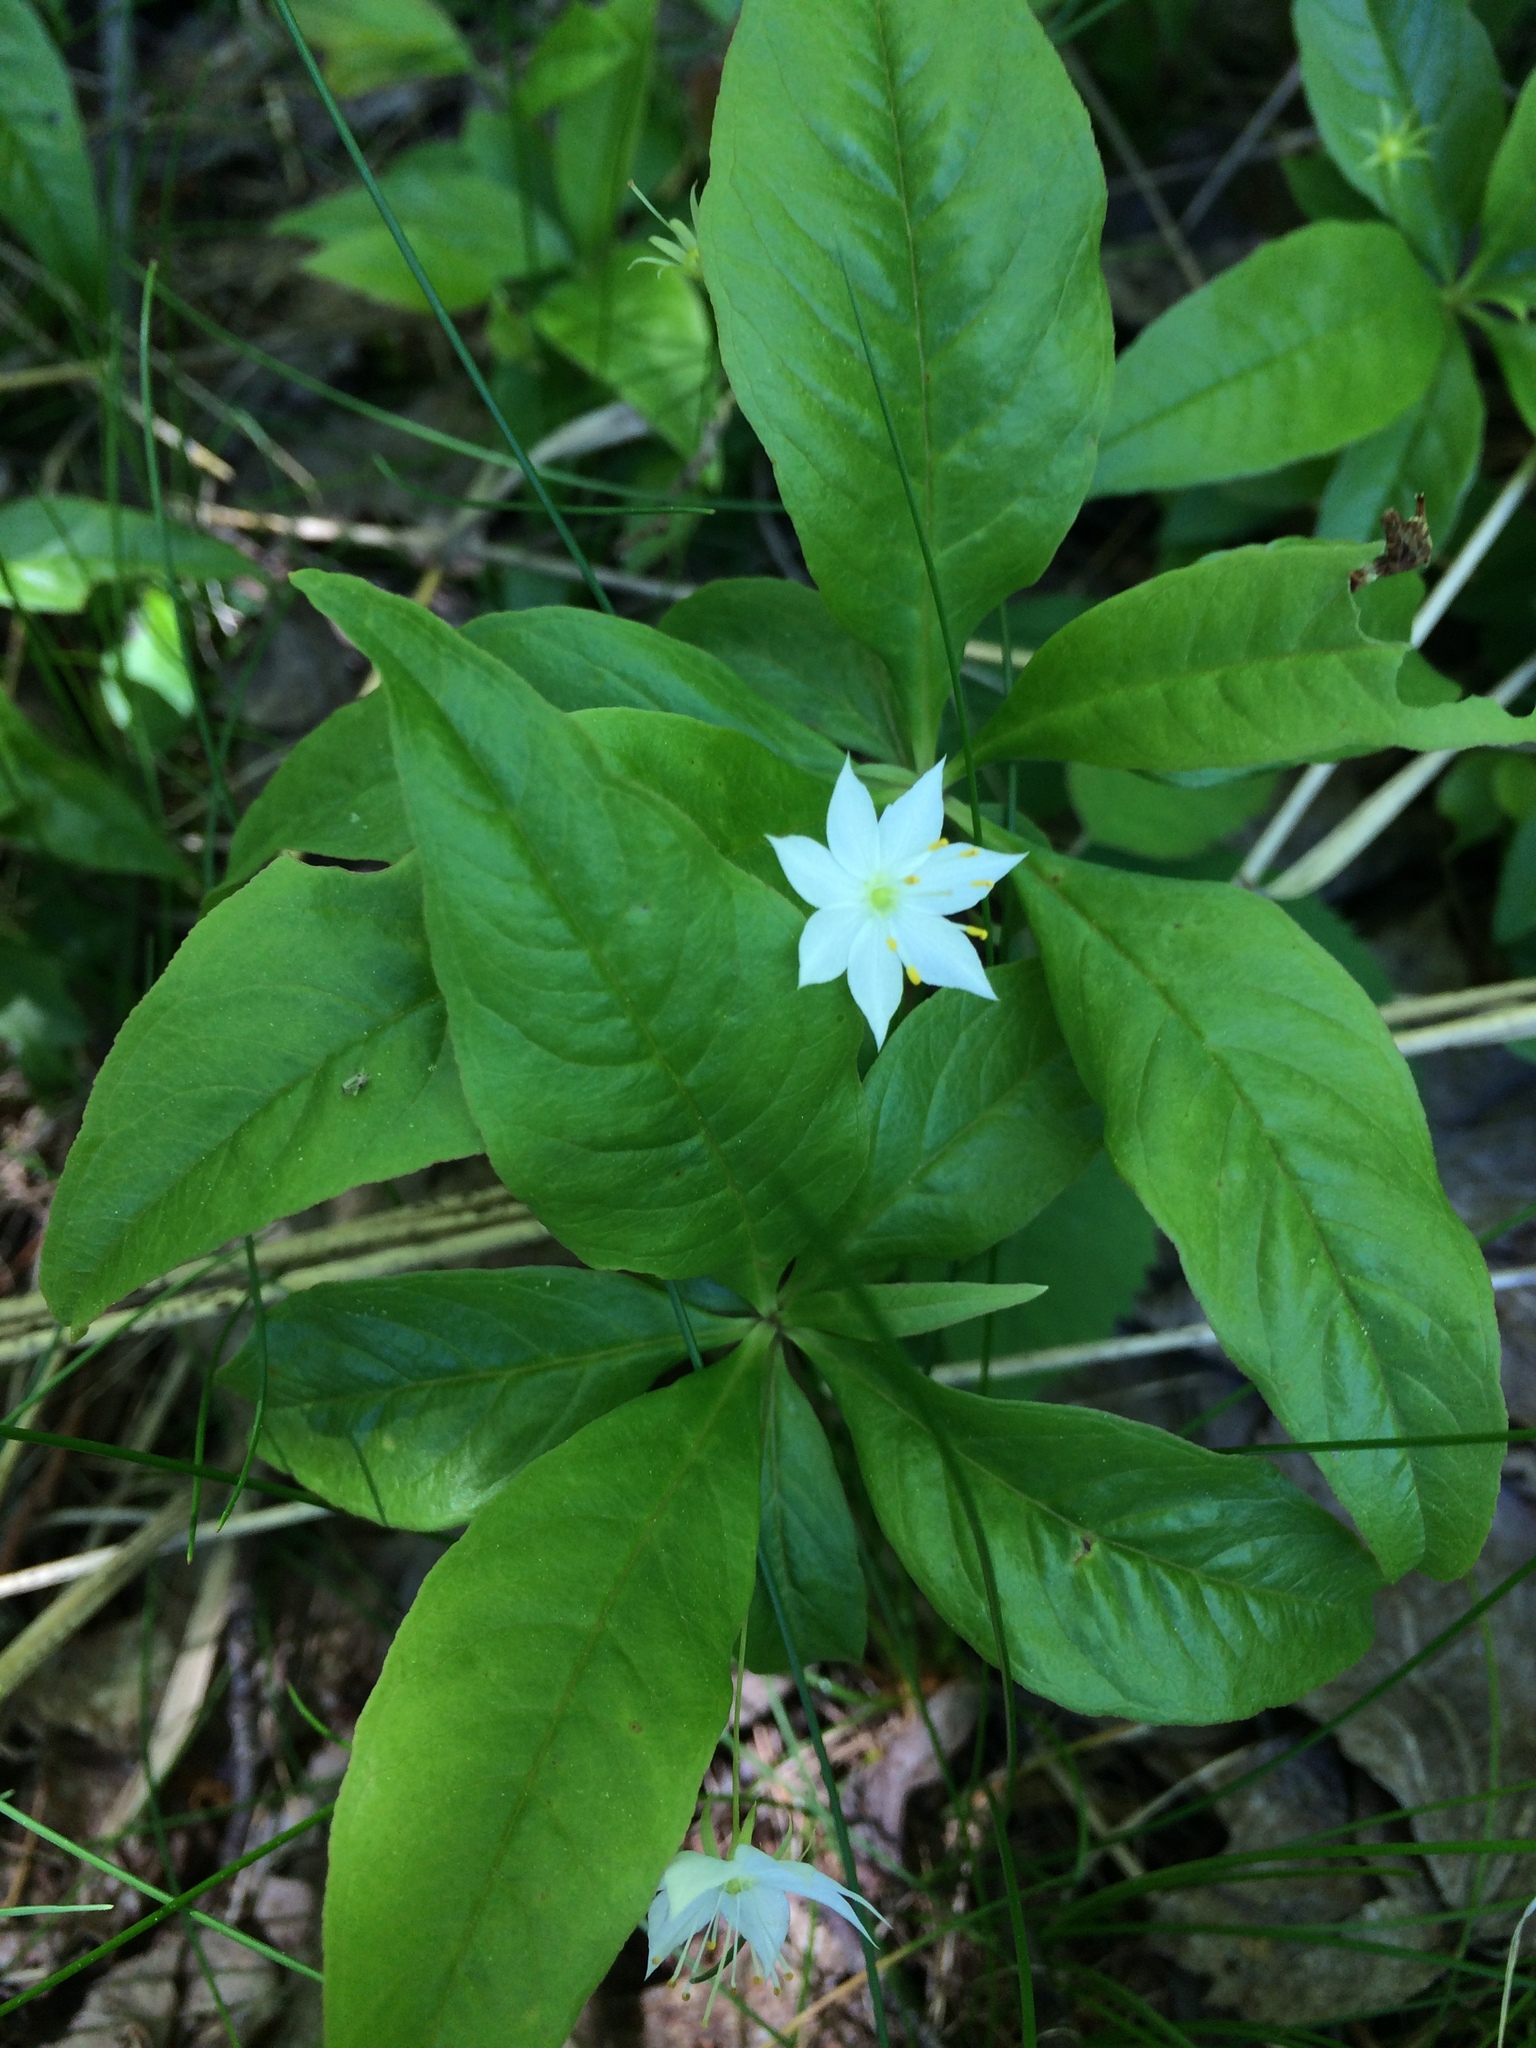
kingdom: Plantae
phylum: Tracheophyta
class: Magnoliopsida
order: Ericales
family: Primulaceae
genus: Lysimachia
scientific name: Lysimachia borealis
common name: American starflower
